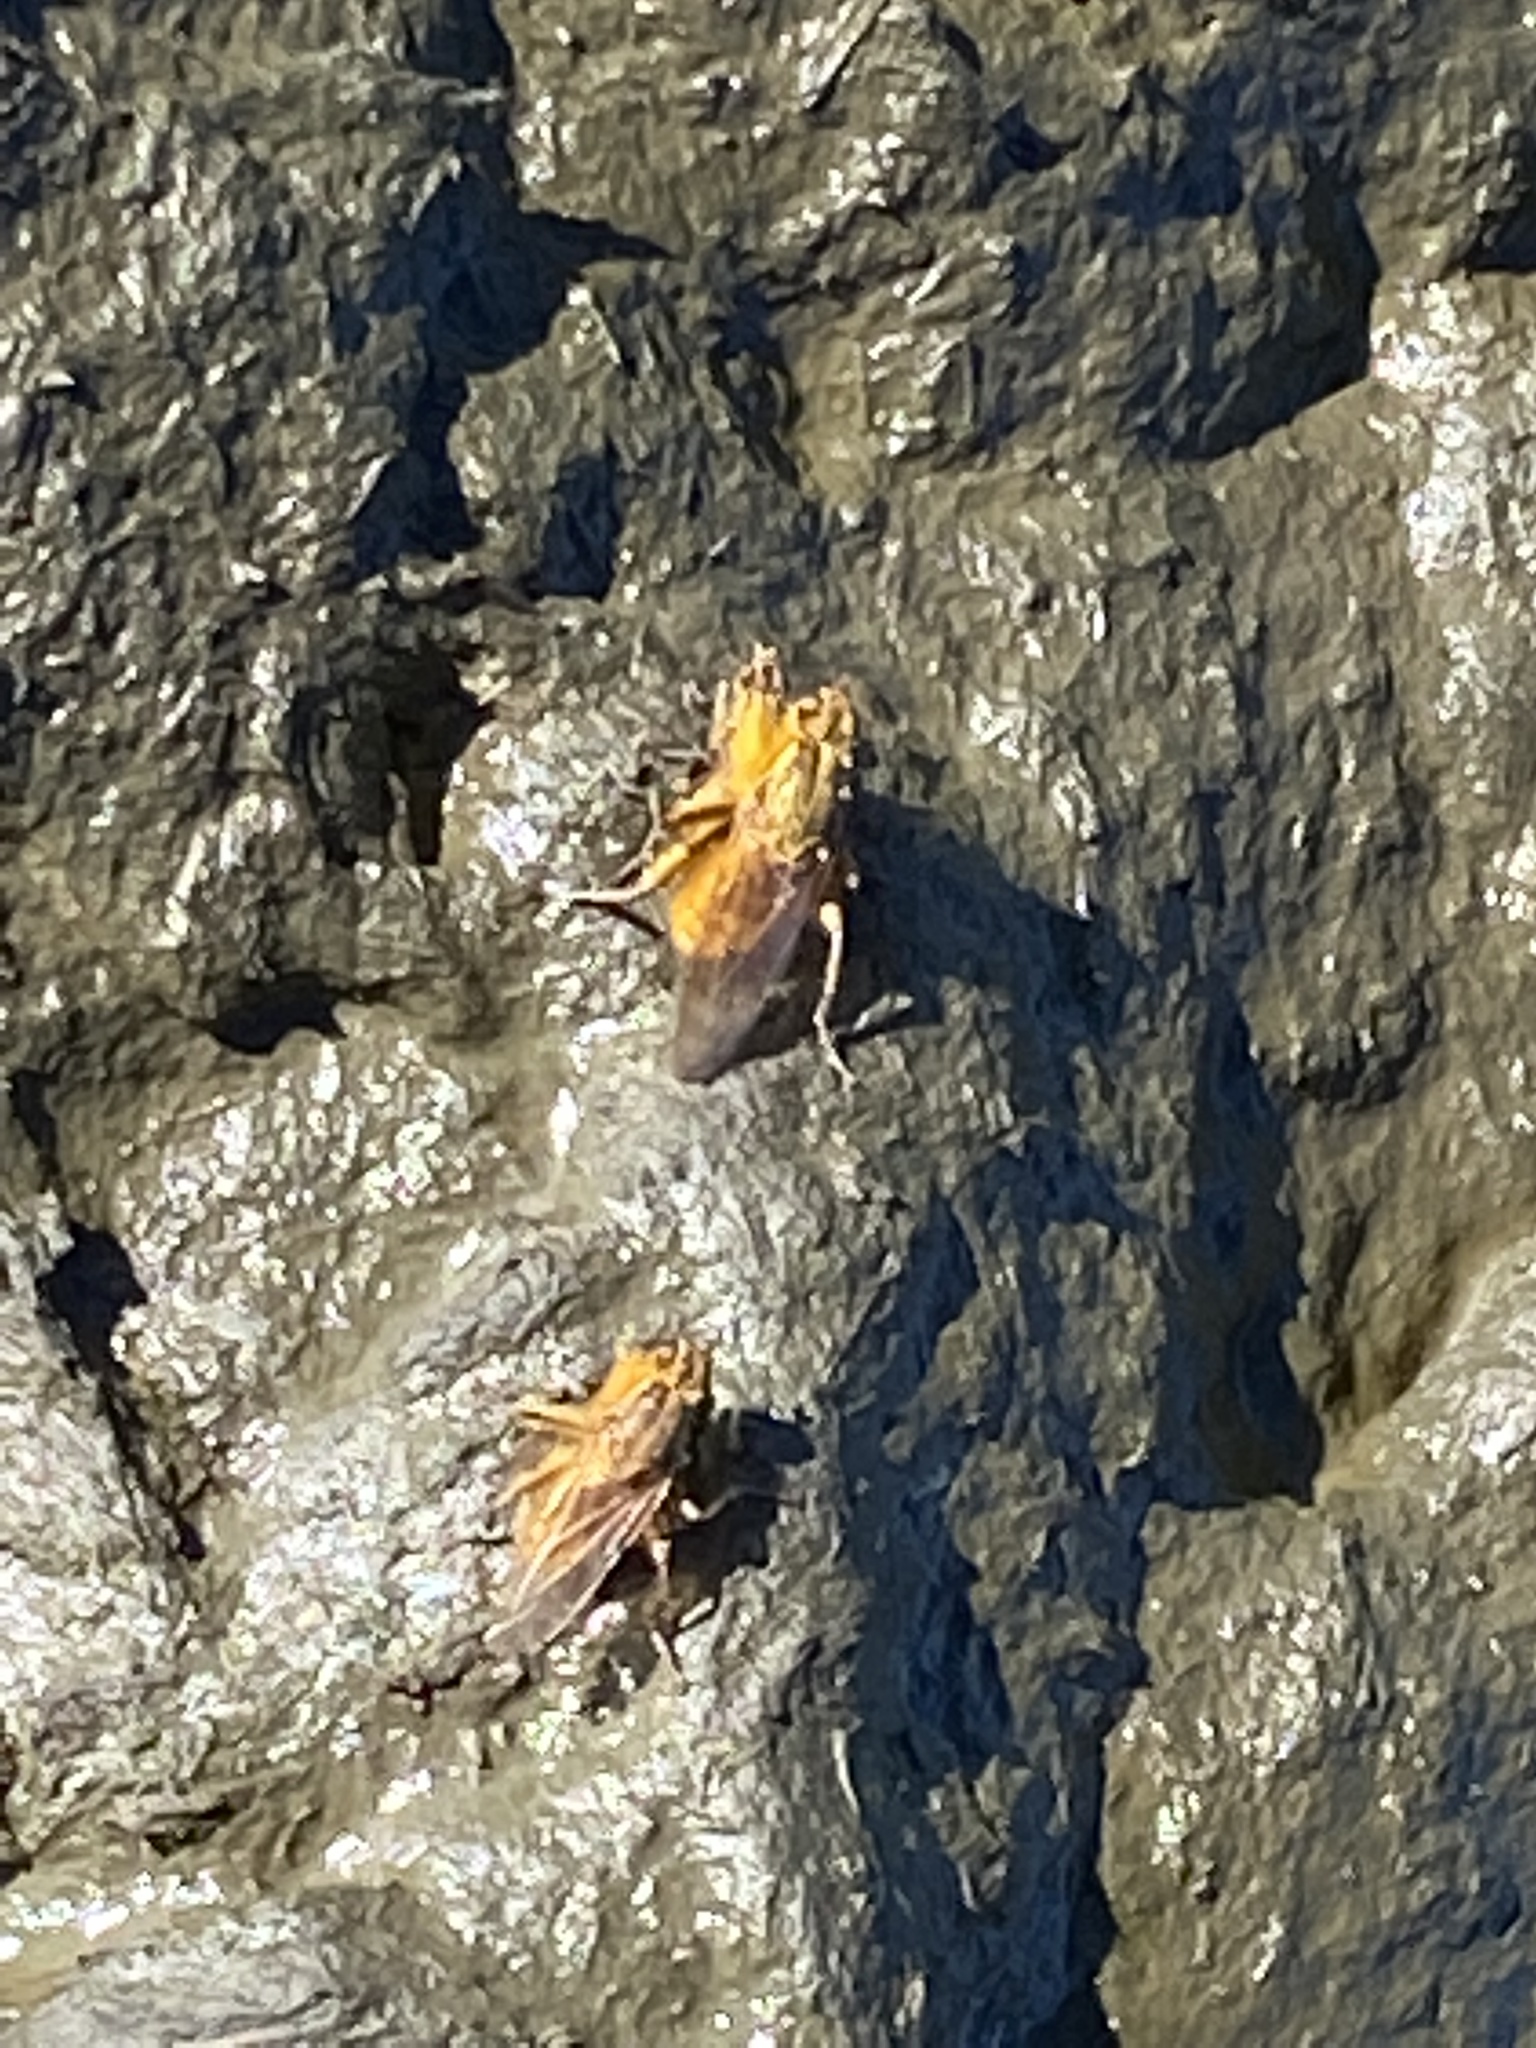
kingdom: Animalia
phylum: Arthropoda
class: Insecta
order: Diptera
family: Scathophagidae
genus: Scathophaga
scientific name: Scathophaga stercoraria
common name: Yellow dung fly
